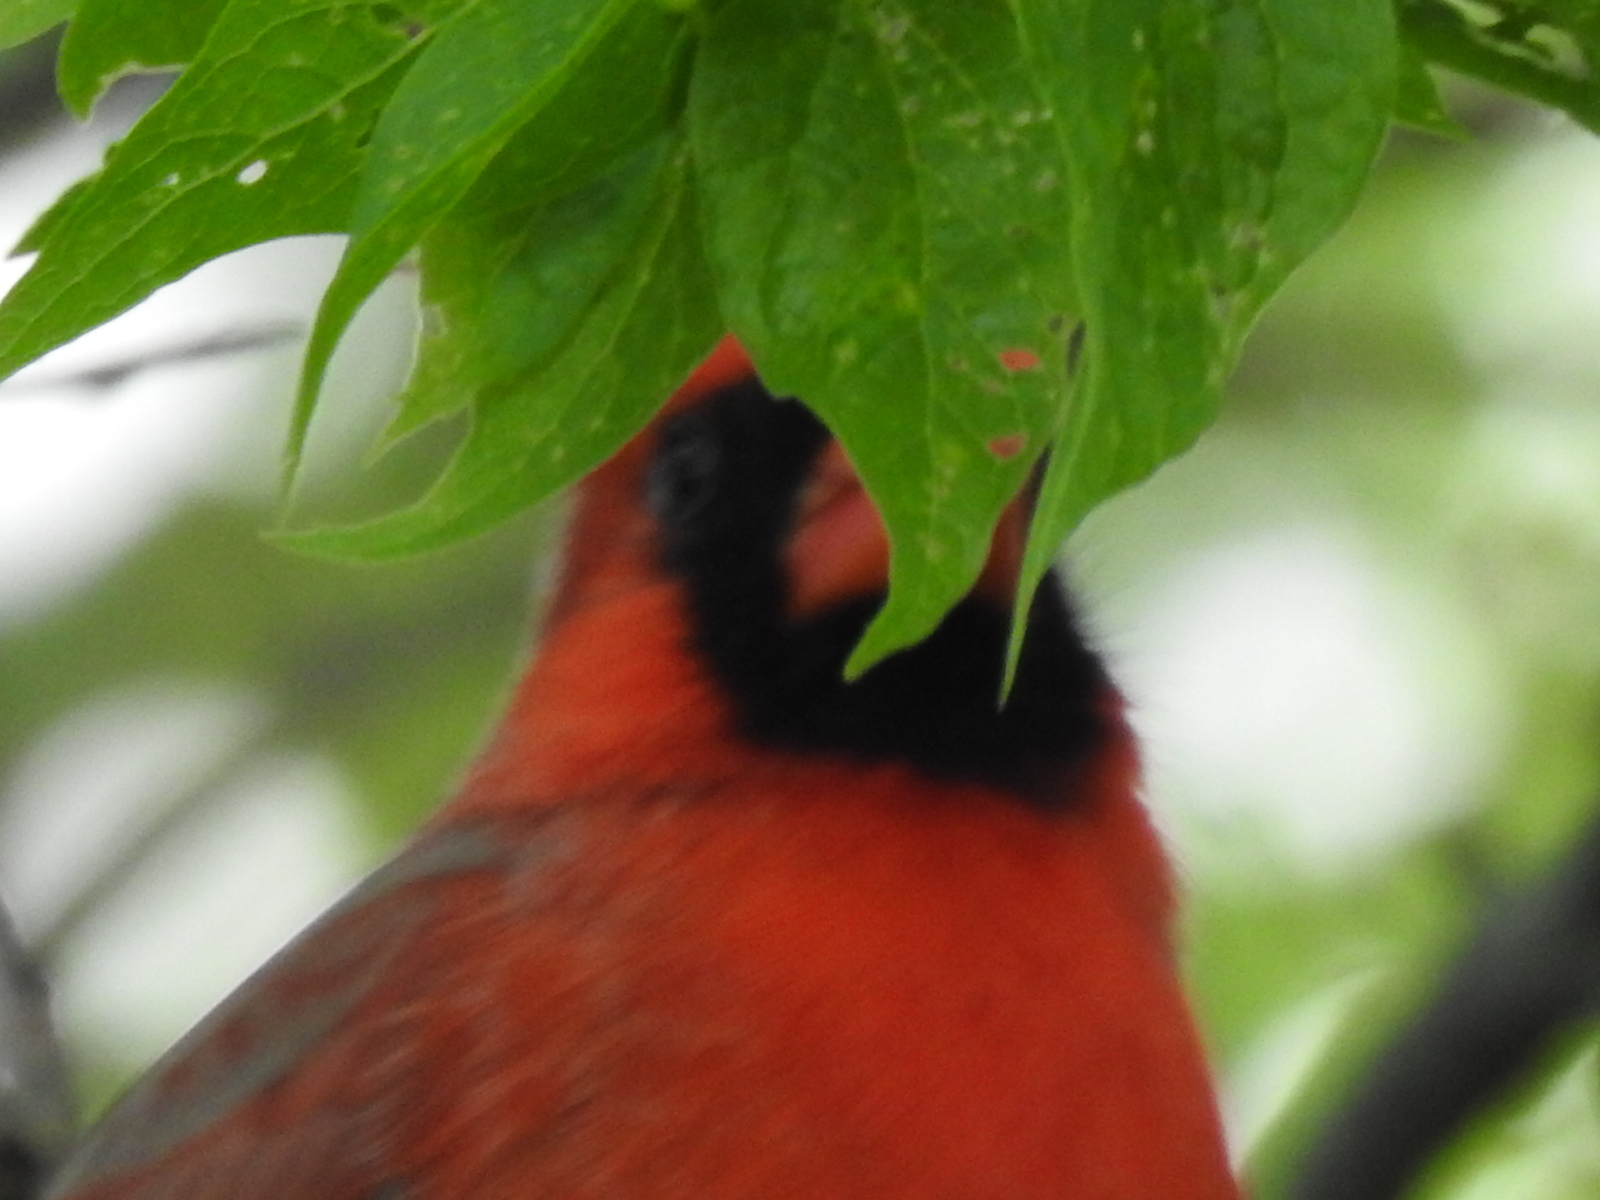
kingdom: Animalia
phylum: Chordata
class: Aves
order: Passeriformes
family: Cardinalidae
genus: Cardinalis
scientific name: Cardinalis cardinalis
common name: Northern cardinal
